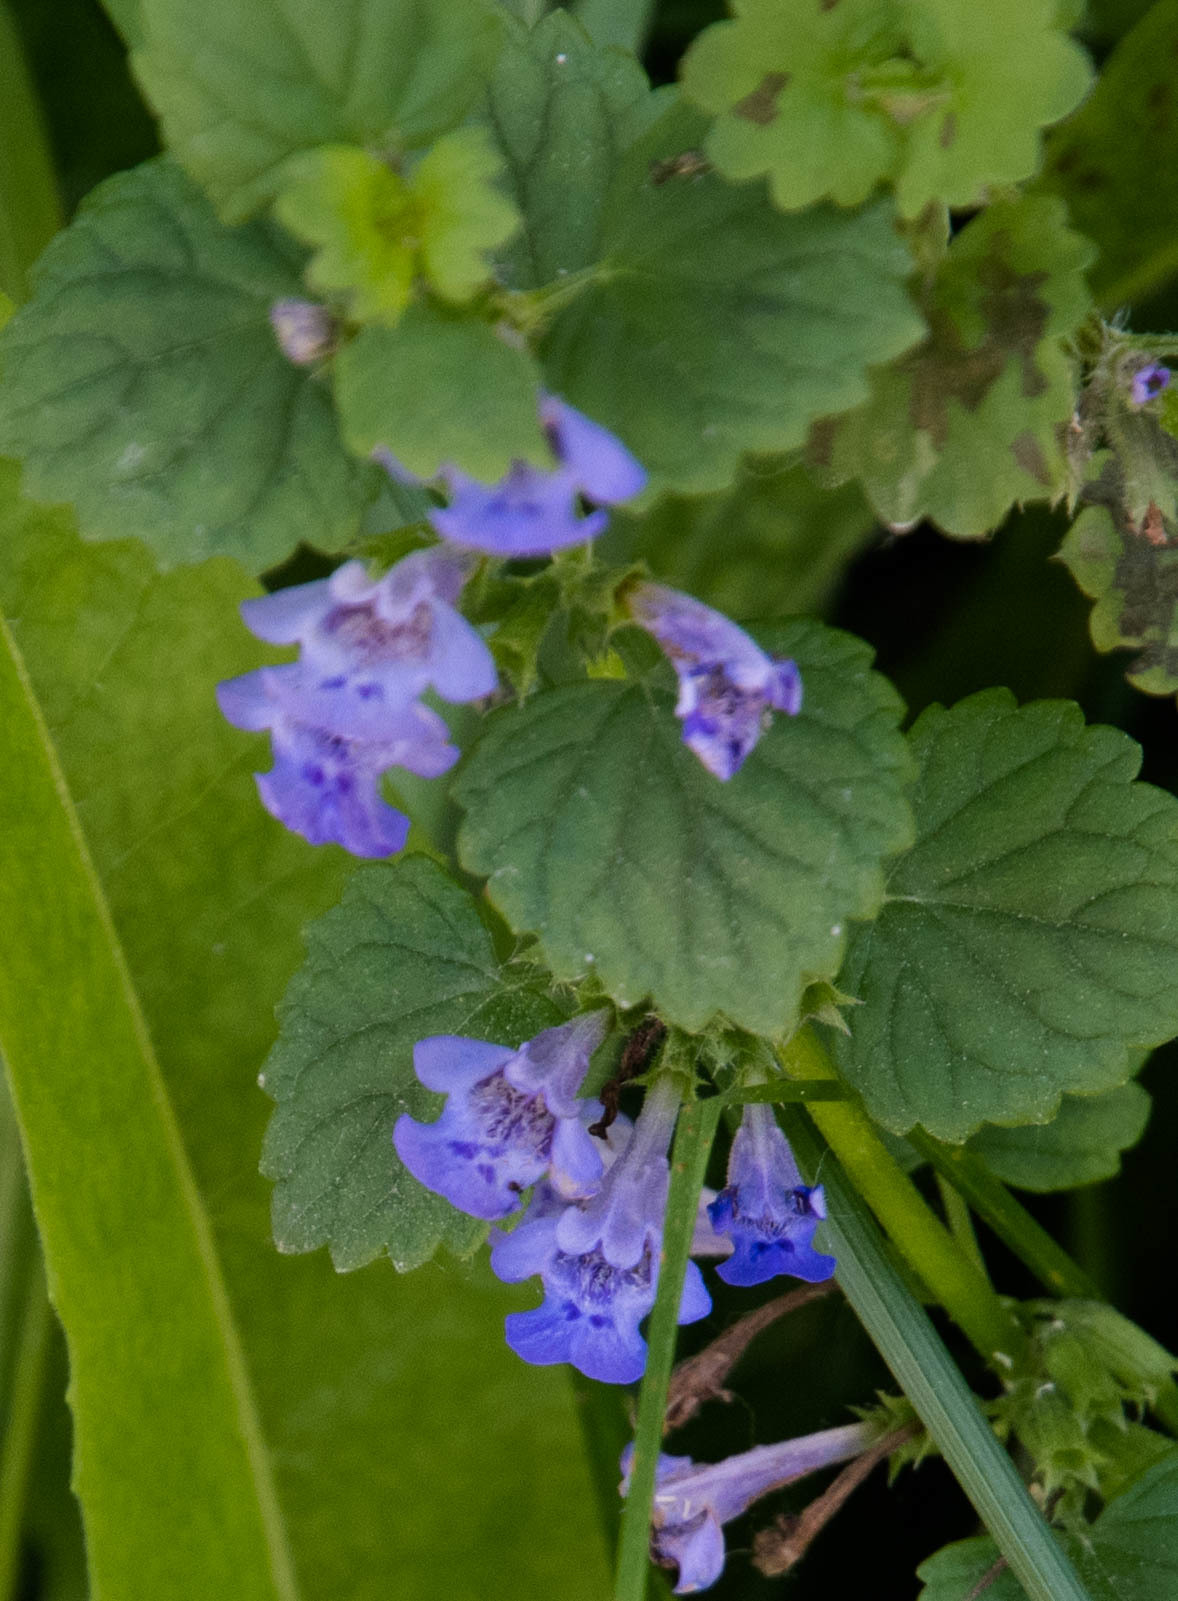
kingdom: Plantae
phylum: Tracheophyta
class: Magnoliopsida
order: Lamiales
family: Lamiaceae
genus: Glechoma
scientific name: Glechoma hederacea
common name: Ground ivy
